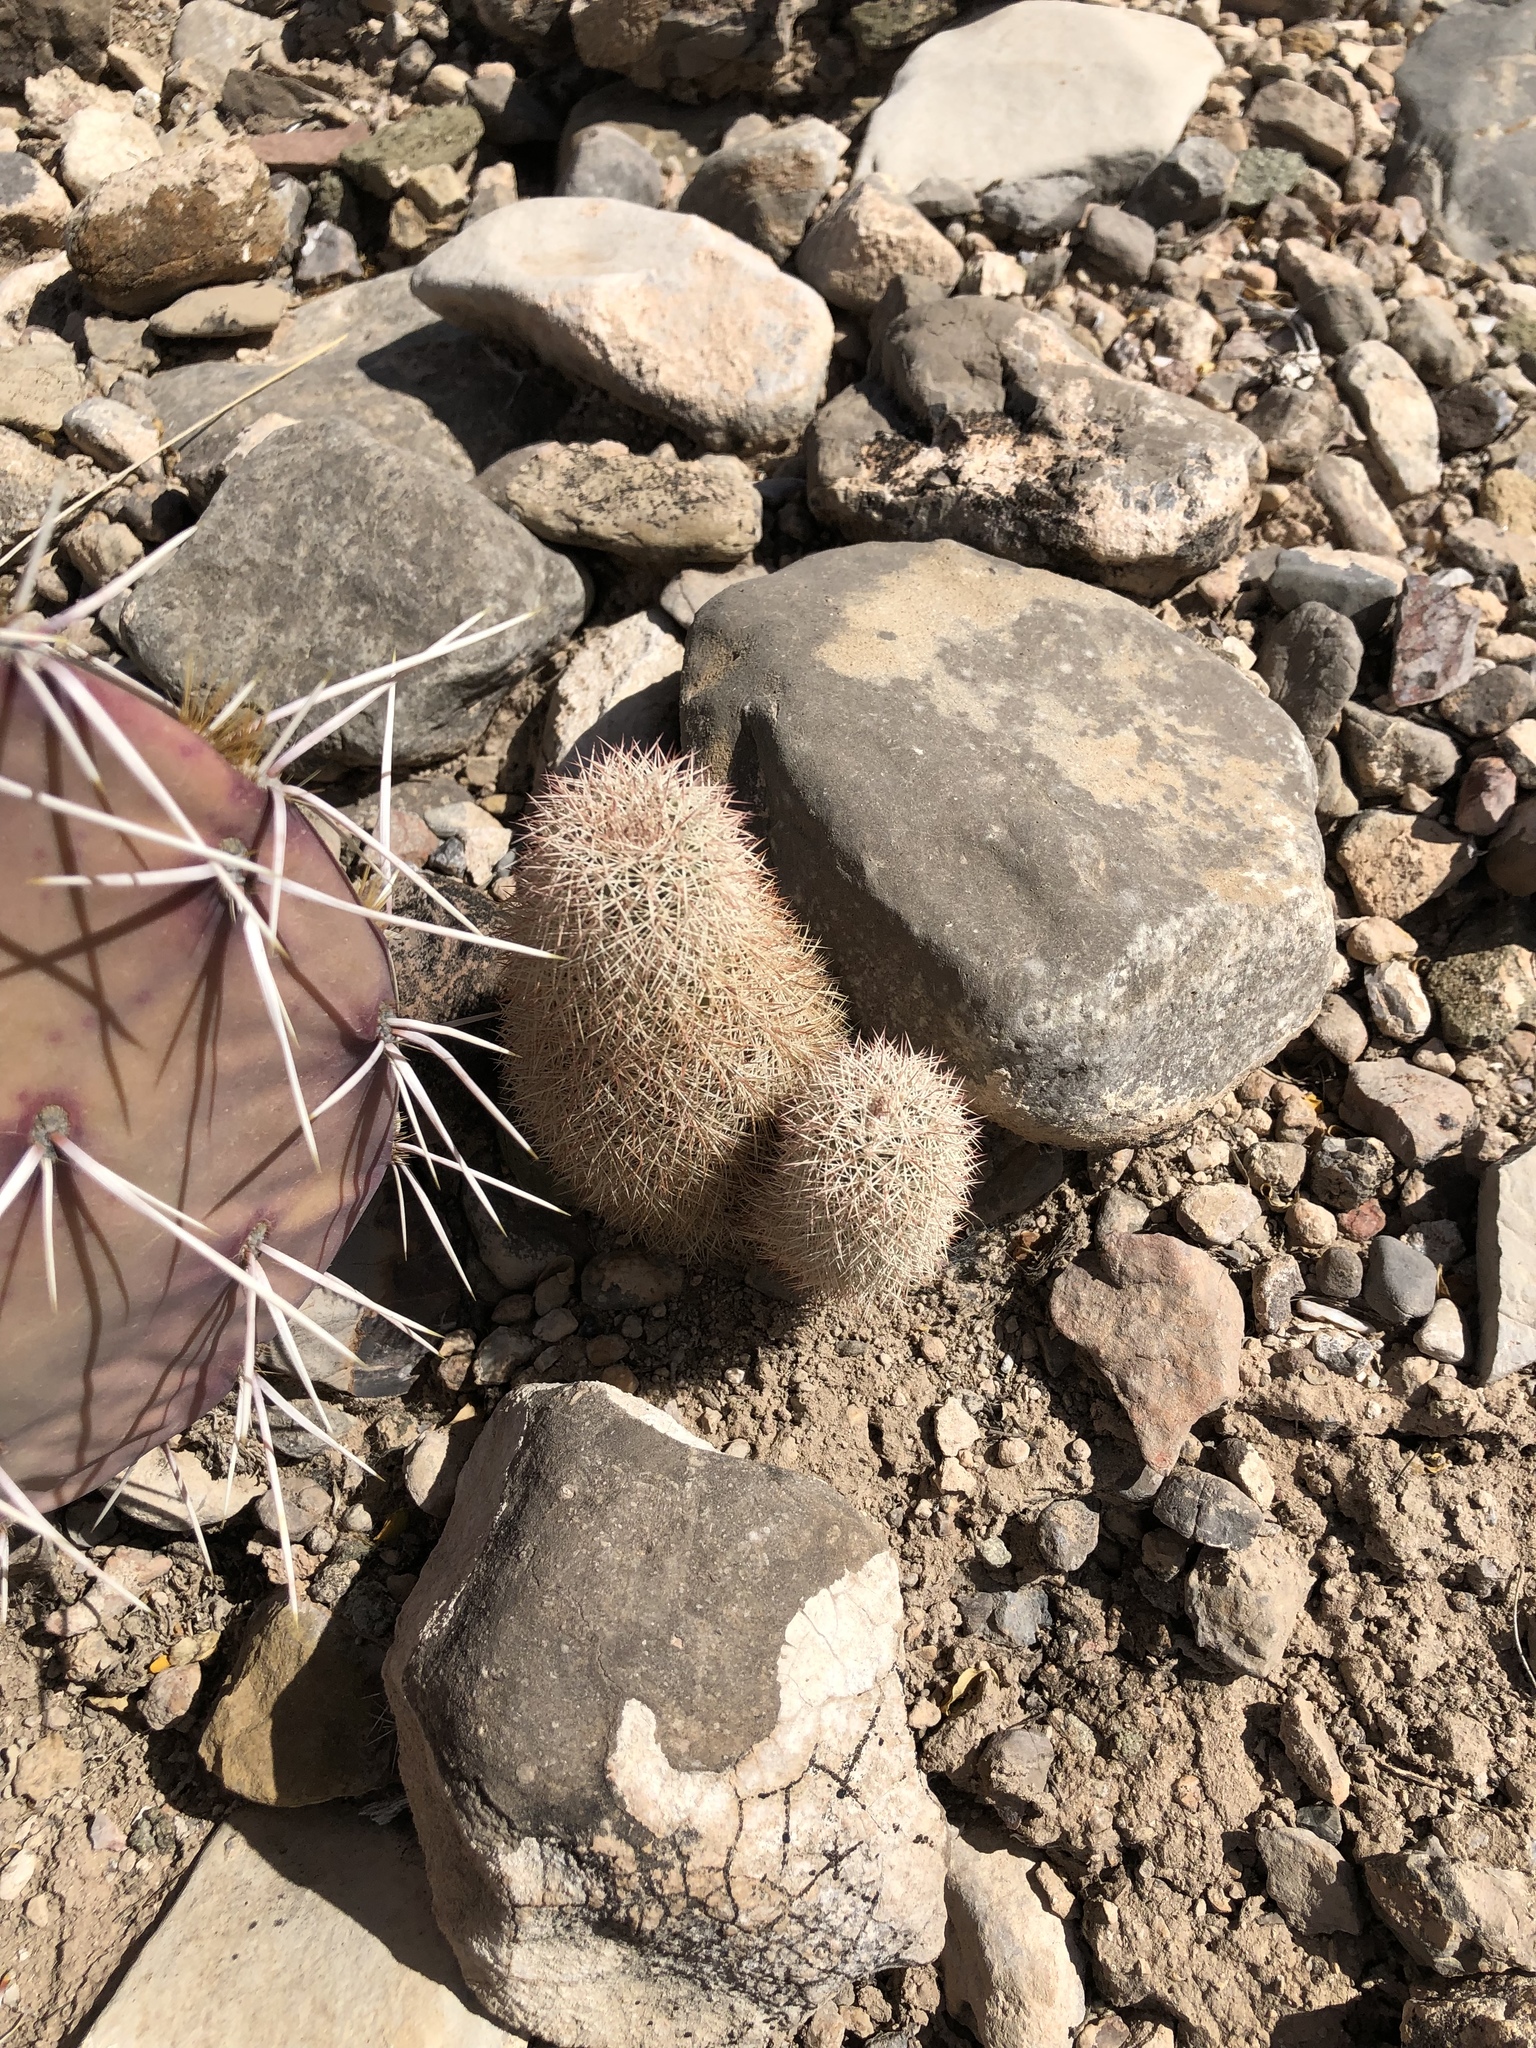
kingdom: Plantae
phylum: Tracheophyta
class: Magnoliopsida
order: Caryophyllales
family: Cactaceae
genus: Echinocereus
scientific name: Echinocereus dasyacanthus
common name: Spiny hedgehog cactus
